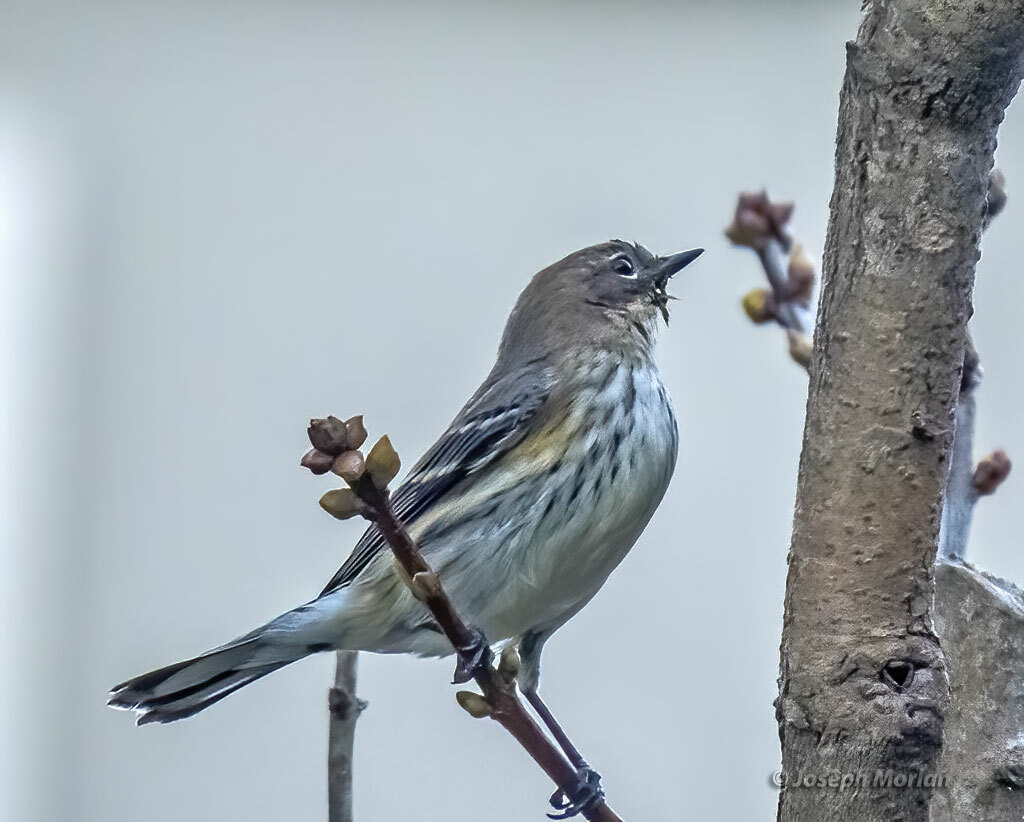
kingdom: Animalia
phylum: Chordata
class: Aves
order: Passeriformes
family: Parulidae
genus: Setophaga
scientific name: Setophaga coronata
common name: Myrtle warbler
